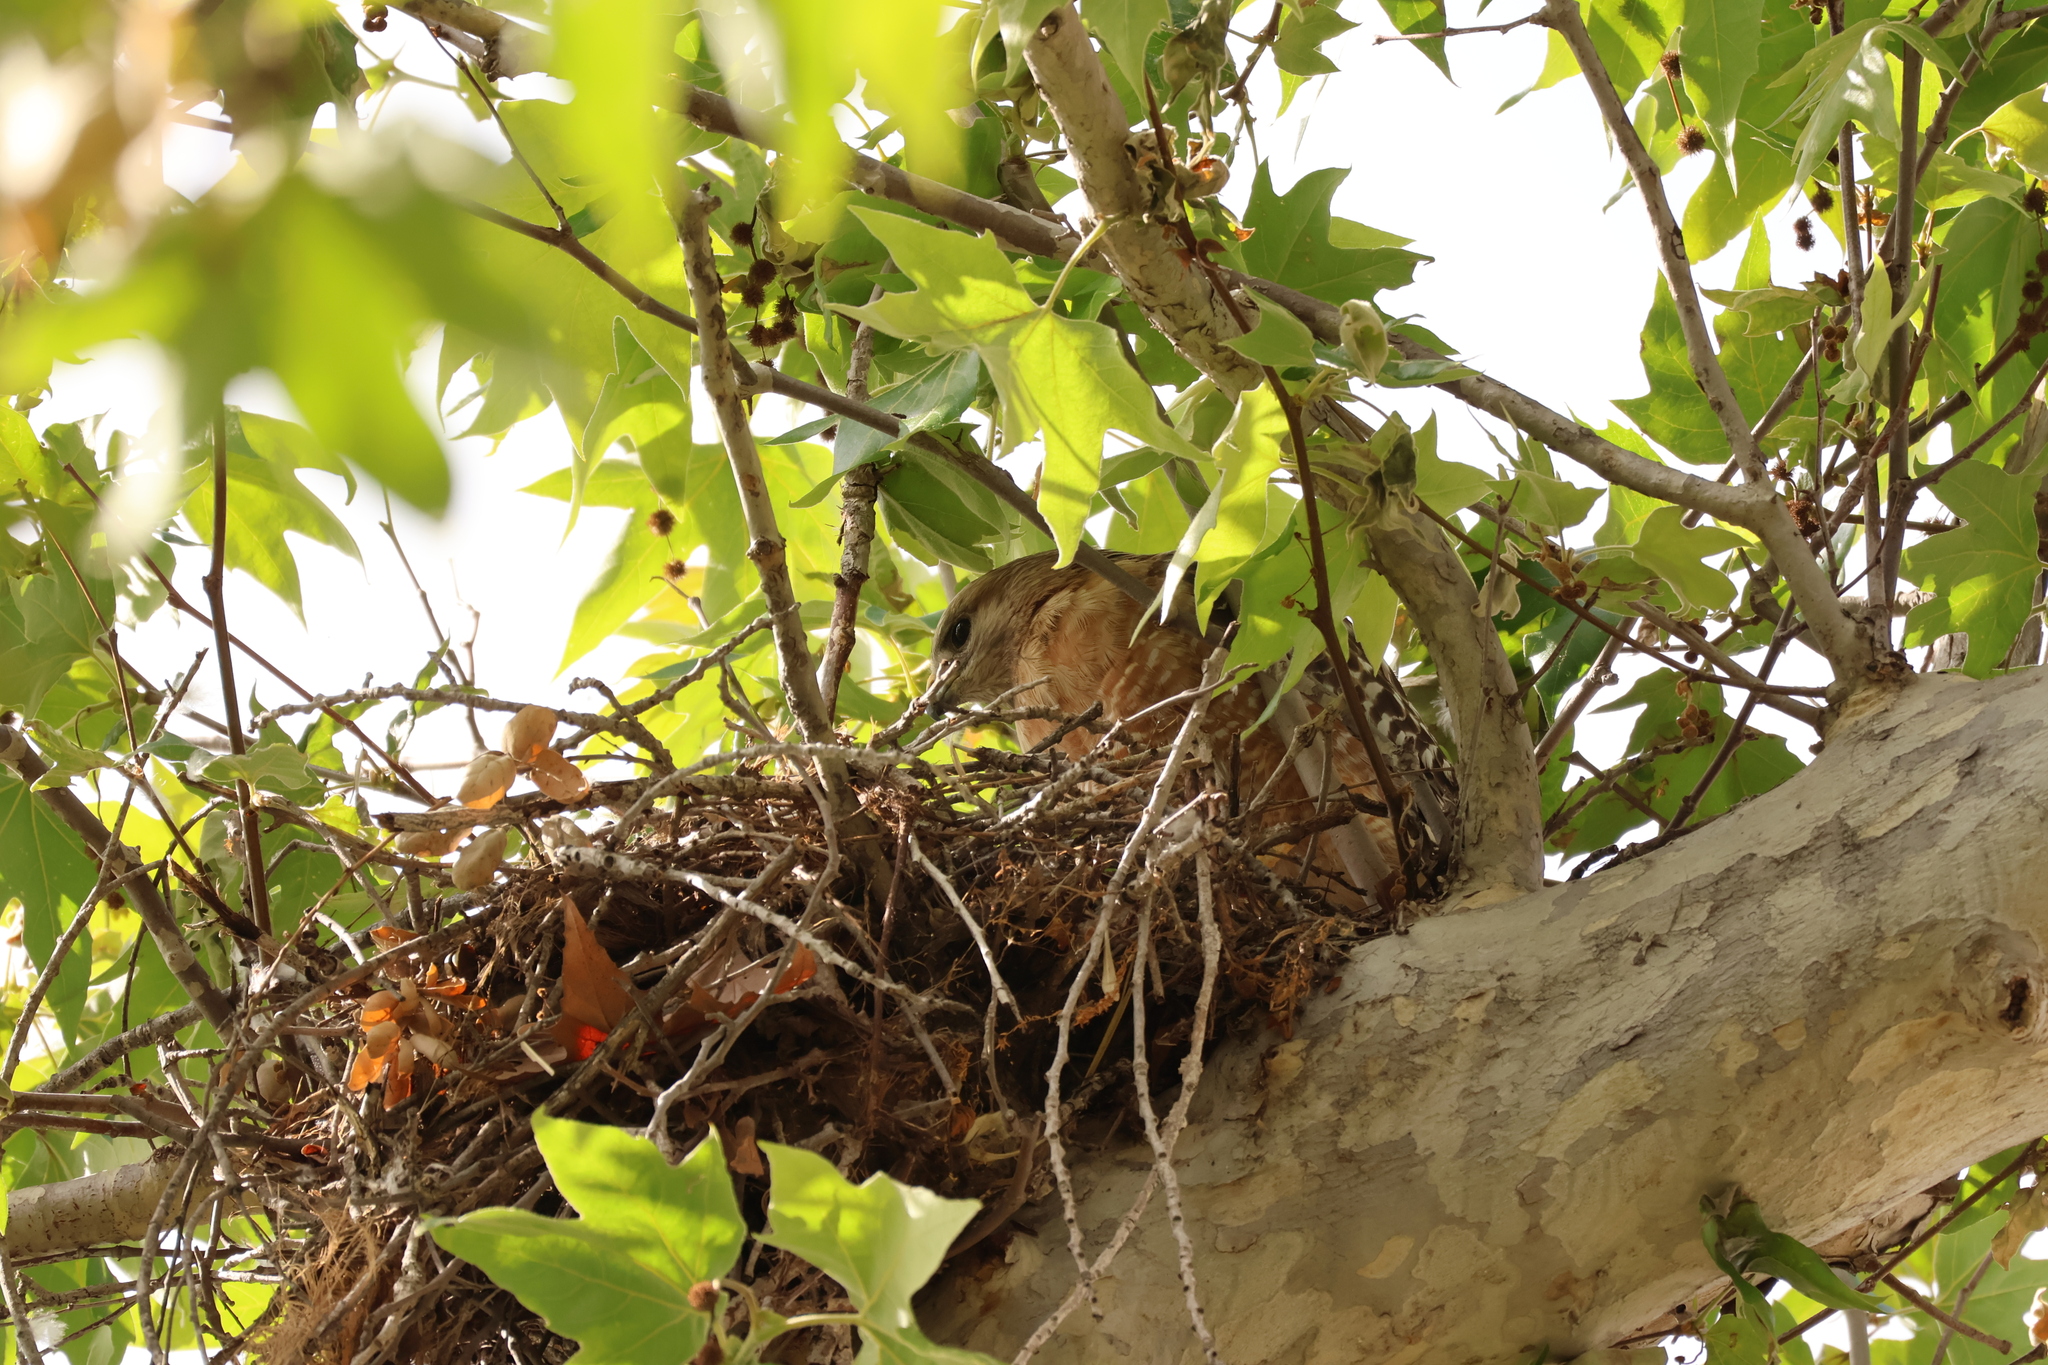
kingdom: Animalia
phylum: Chordata
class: Aves
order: Accipitriformes
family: Accipitridae
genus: Buteo
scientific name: Buteo lineatus
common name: Red-shouldered hawk
